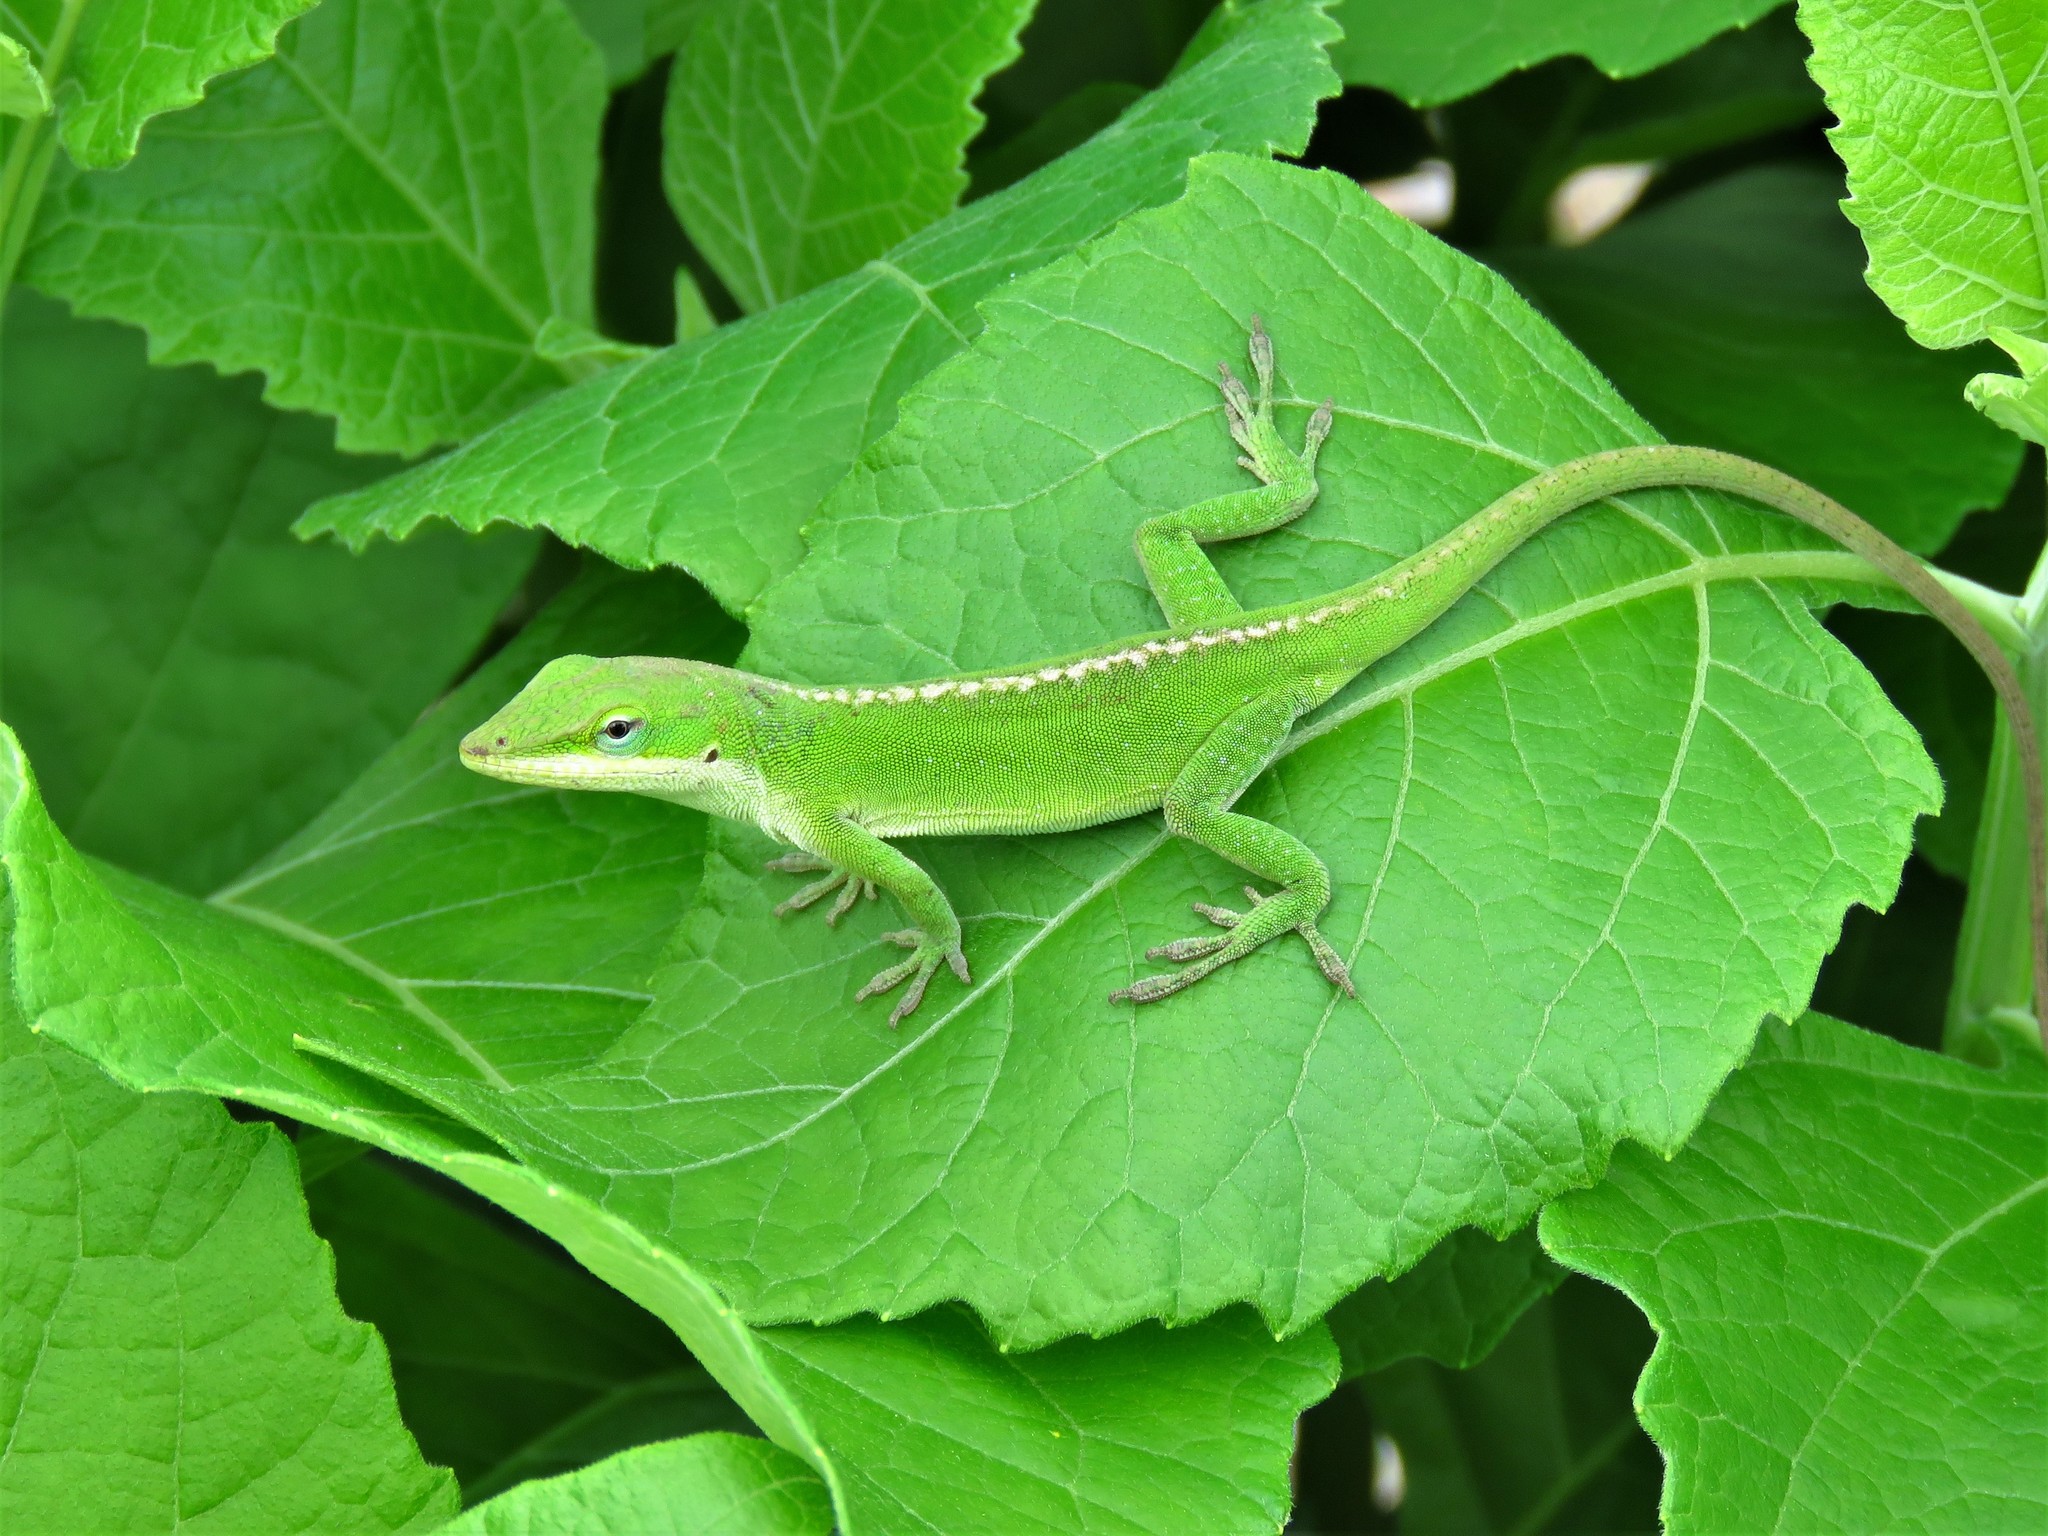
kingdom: Animalia
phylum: Chordata
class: Squamata
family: Dactyloidae
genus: Anolis
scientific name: Anolis carolinensis
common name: Green anole
